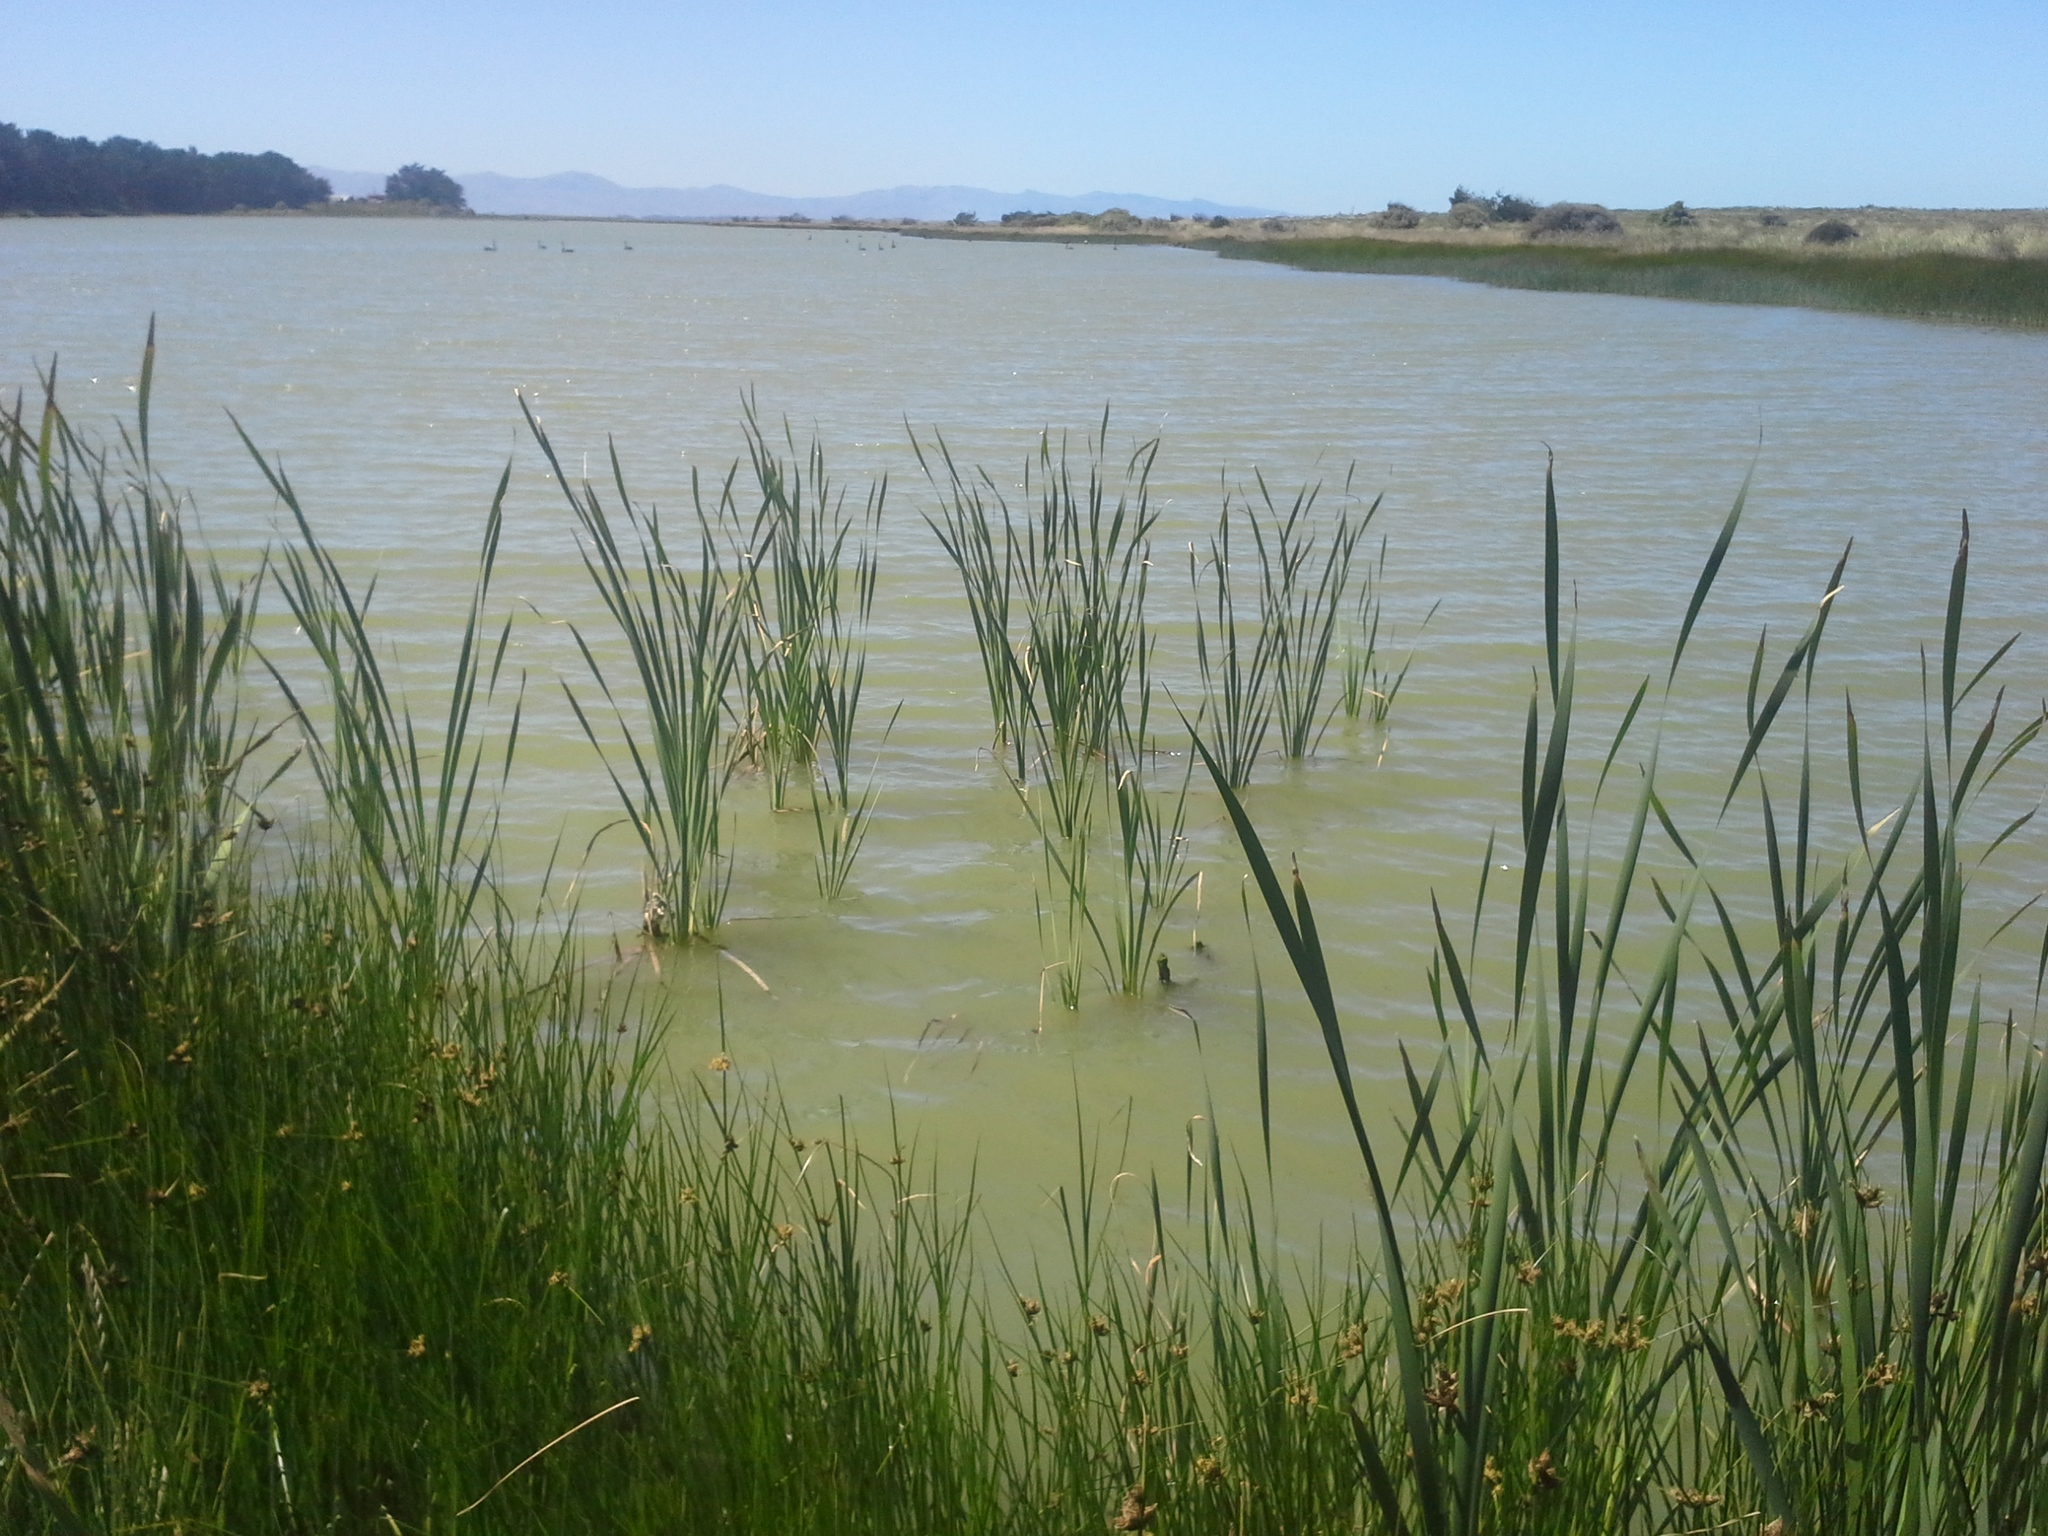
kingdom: Plantae
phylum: Tracheophyta
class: Liliopsida
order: Poales
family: Typhaceae
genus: Typha
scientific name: Typha orientalis
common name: Bullrush
